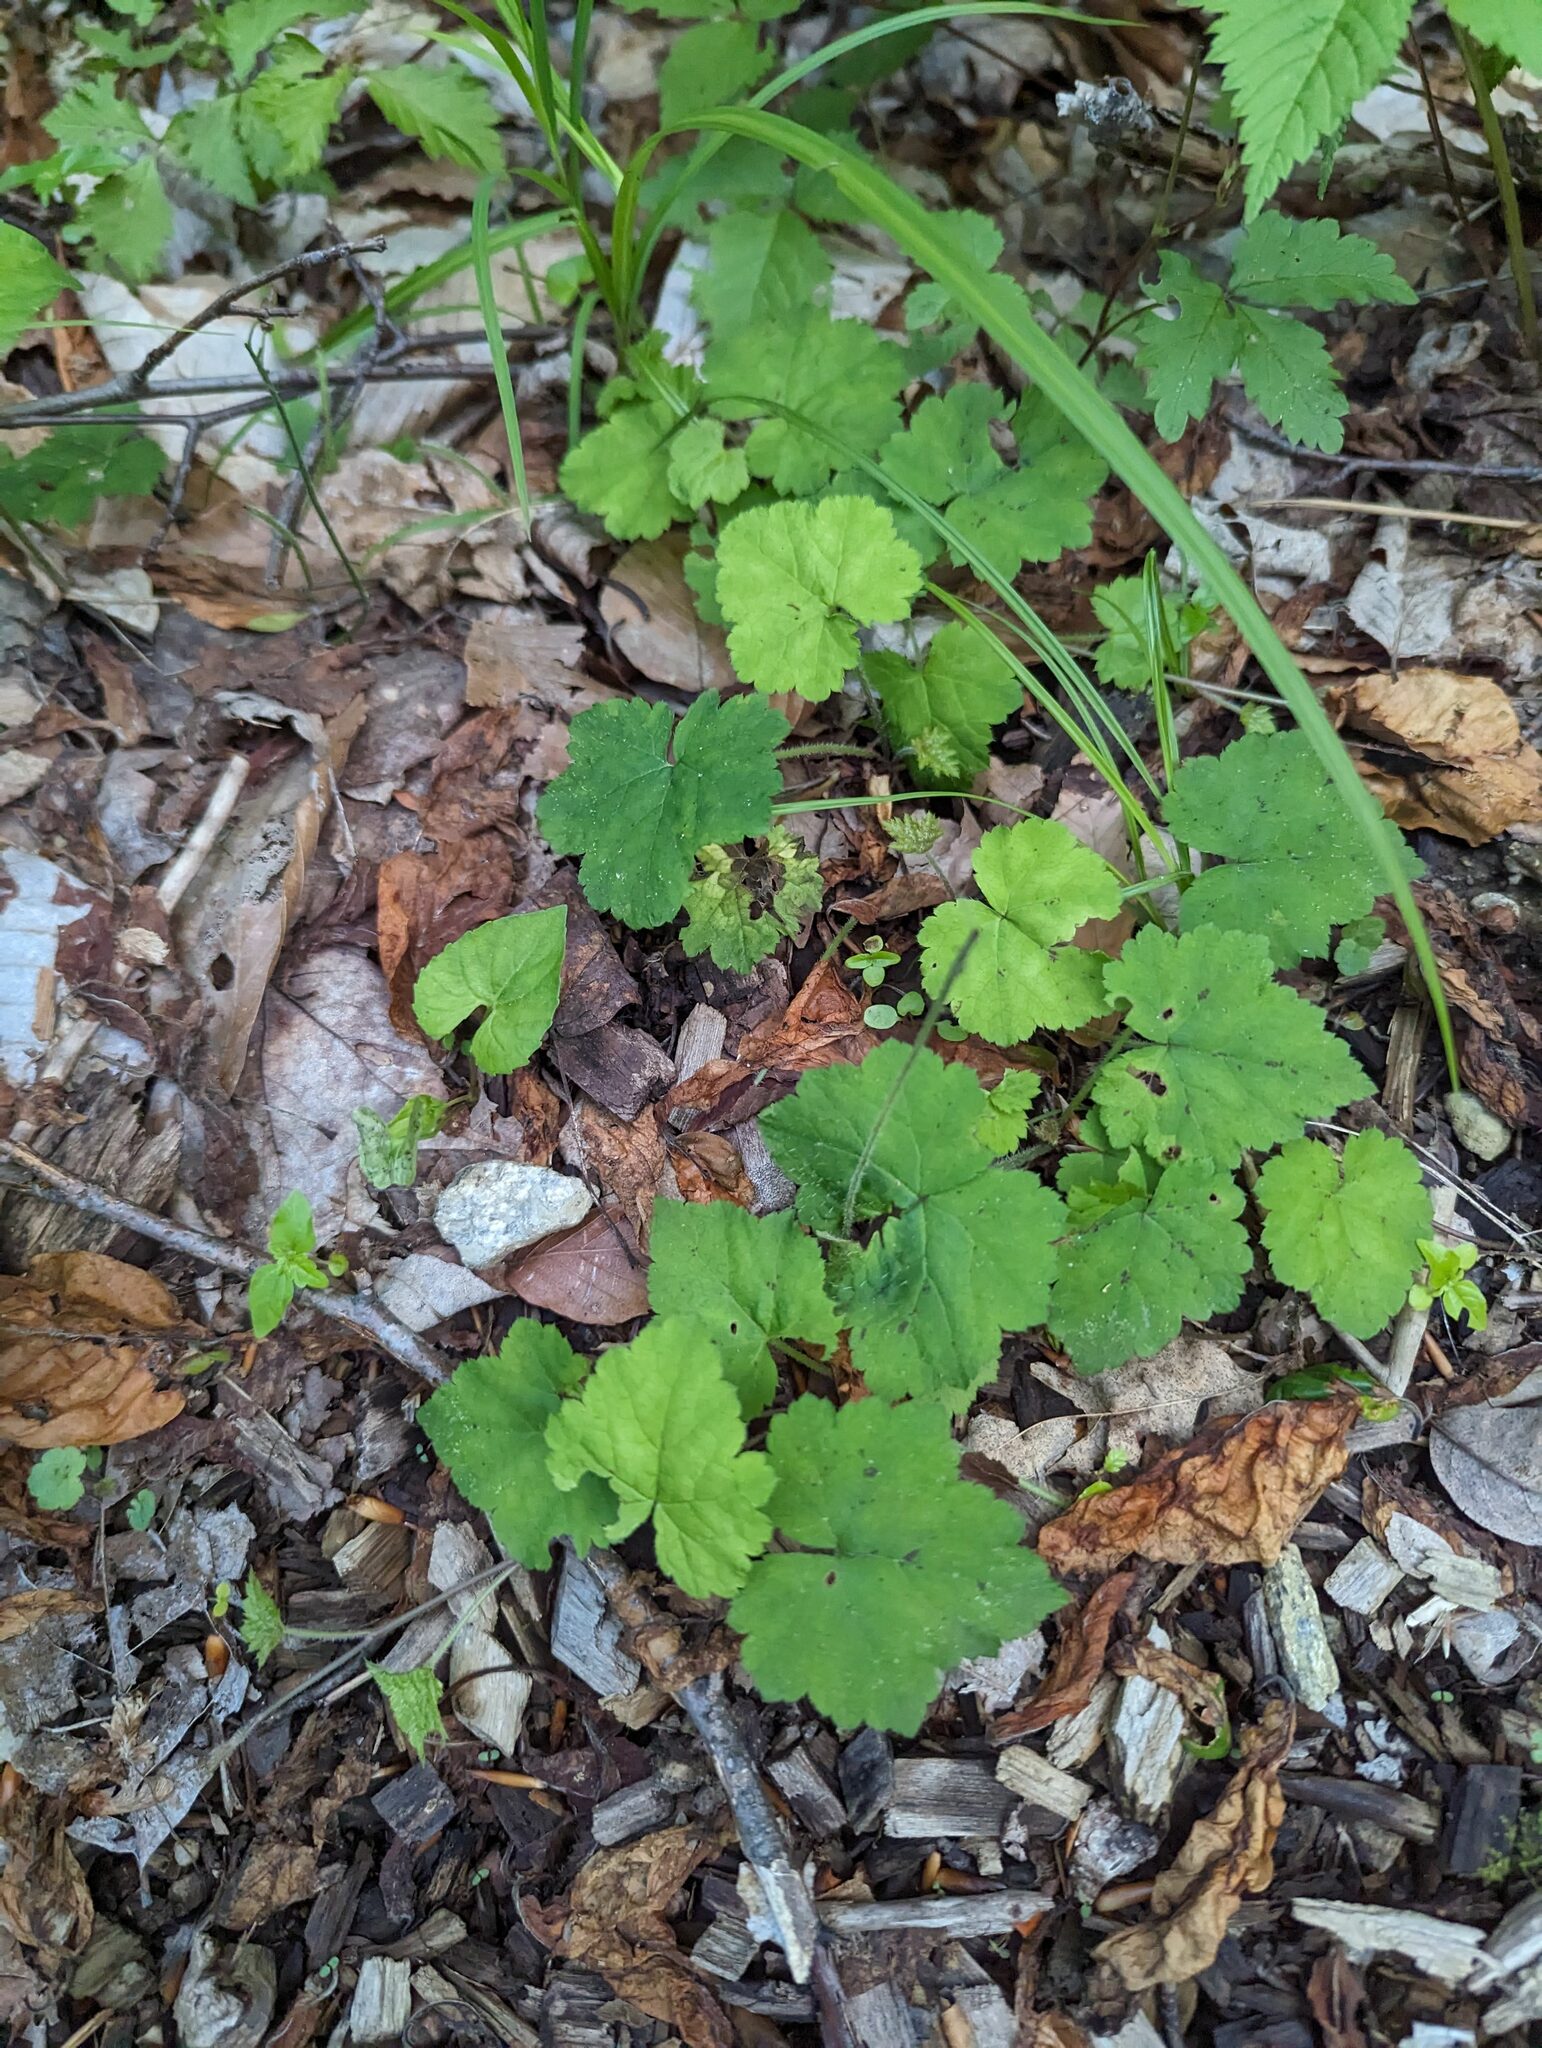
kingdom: Plantae
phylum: Tracheophyta
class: Magnoliopsida
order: Saxifragales
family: Saxifragaceae
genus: Tiarella
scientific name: Tiarella stolonifera
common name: Stoloniferous foamflower
